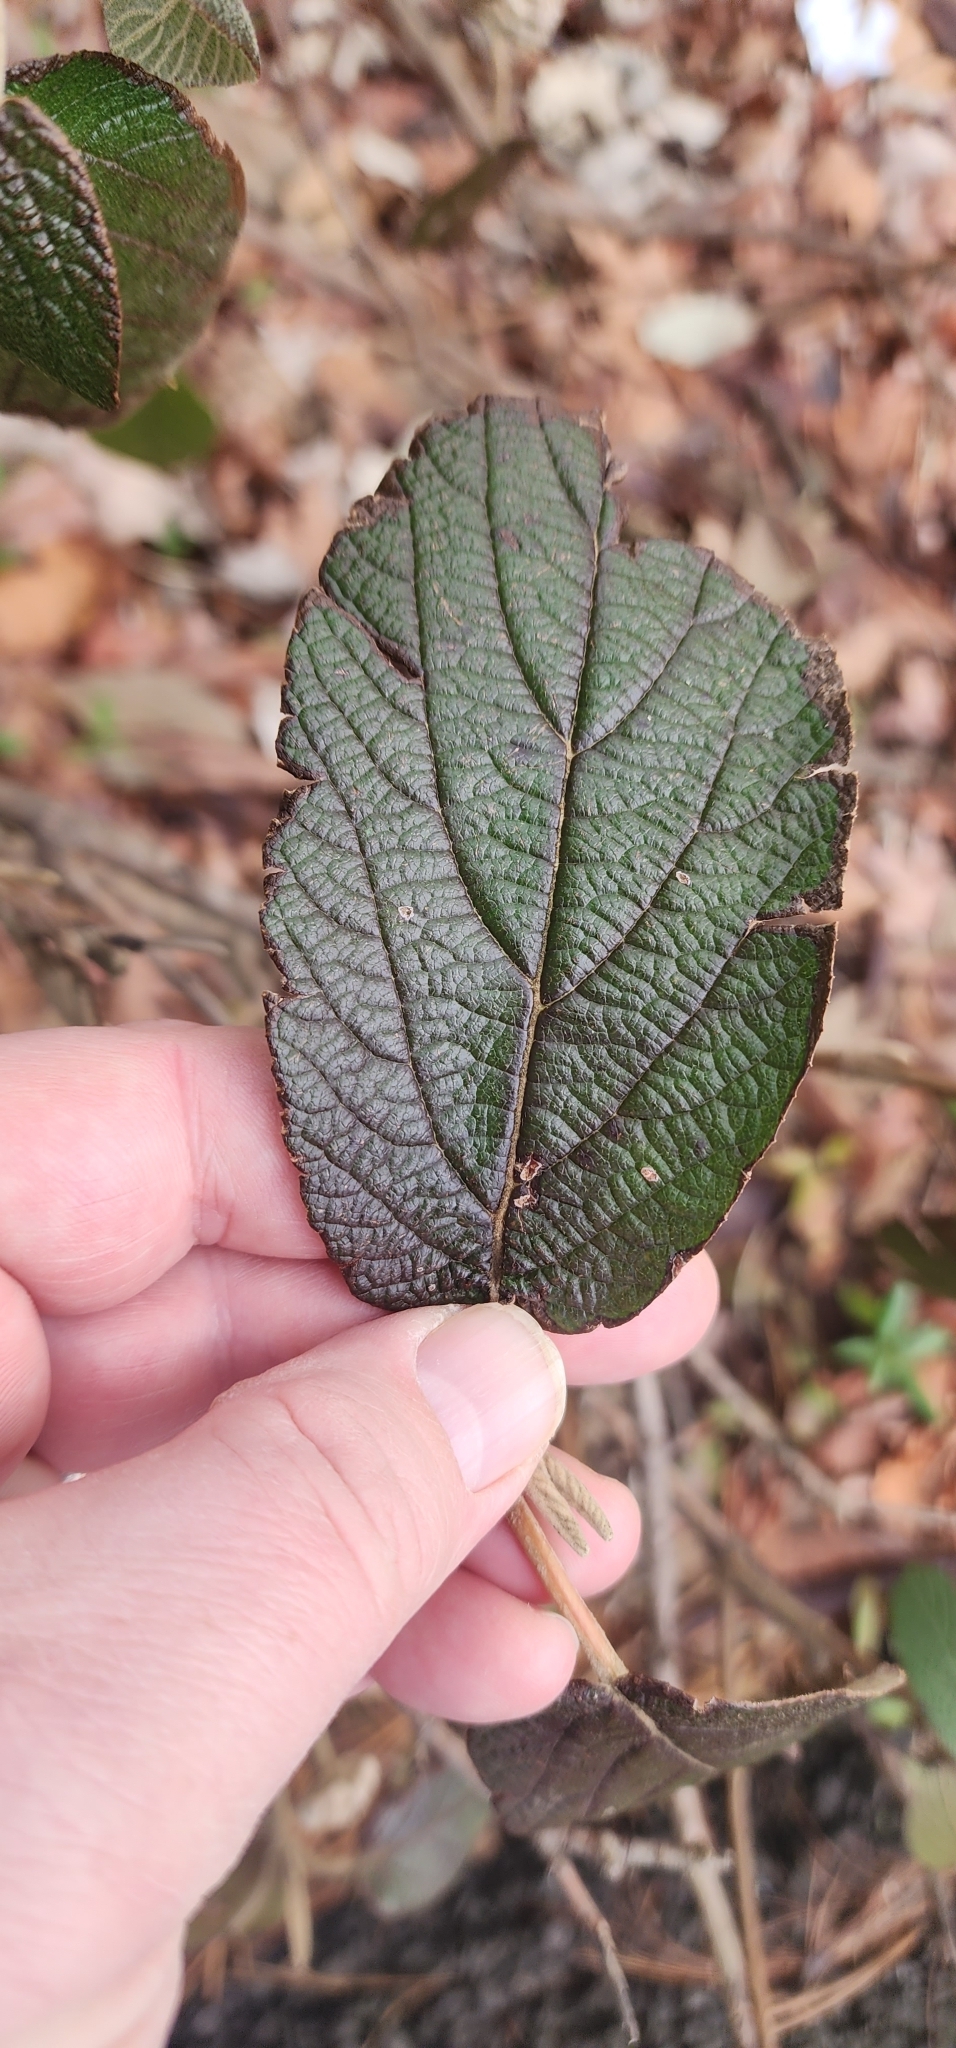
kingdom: Plantae
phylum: Tracheophyta
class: Magnoliopsida
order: Dipsacales
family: Viburnaceae
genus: Viburnum
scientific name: Viburnum rhytidophyllum
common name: Wrinkled viburnum
